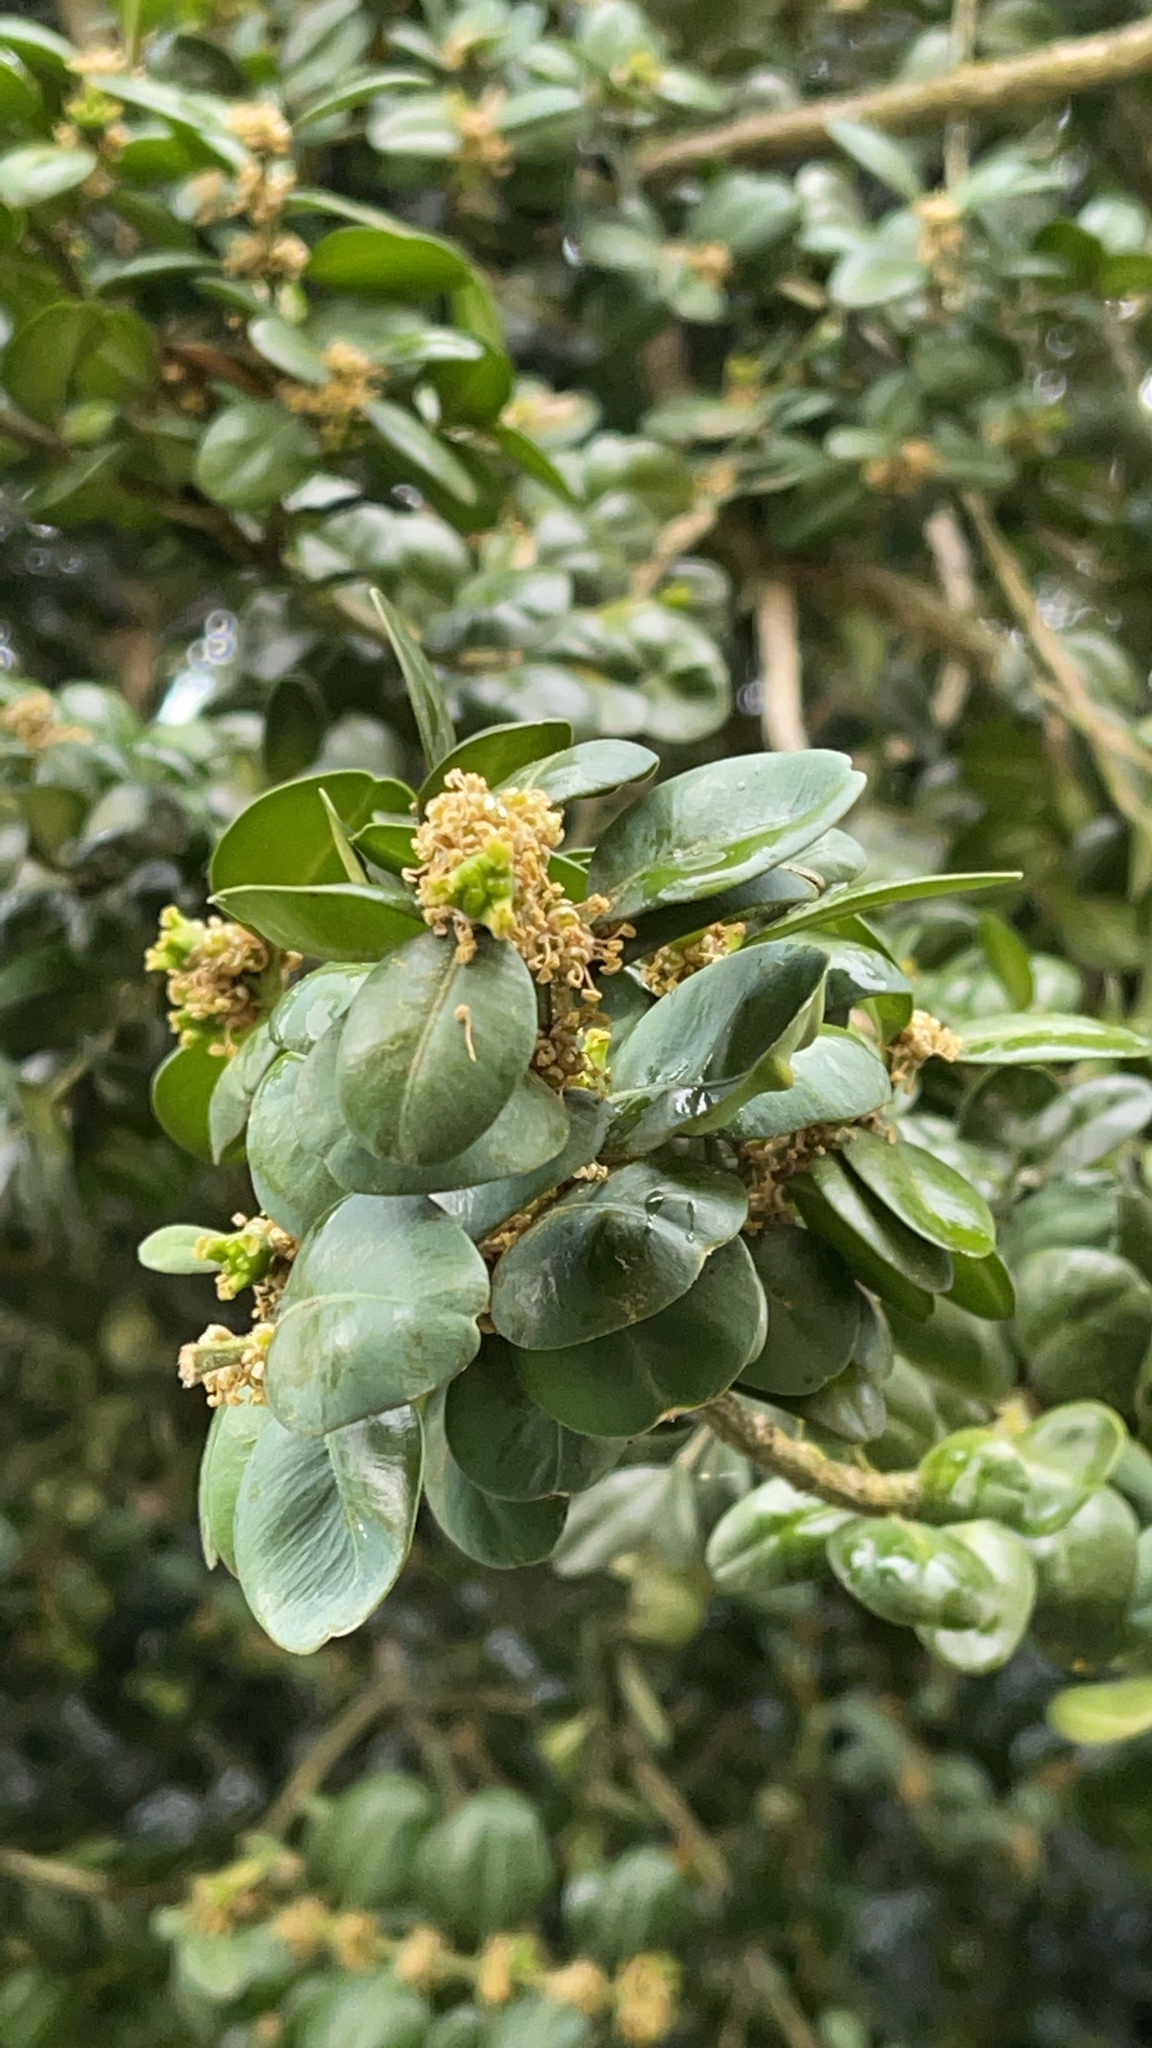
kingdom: Plantae
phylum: Tracheophyta
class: Magnoliopsida
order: Buxales
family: Buxaceae
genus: Buxus
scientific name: Buxus sempervirens
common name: Box
